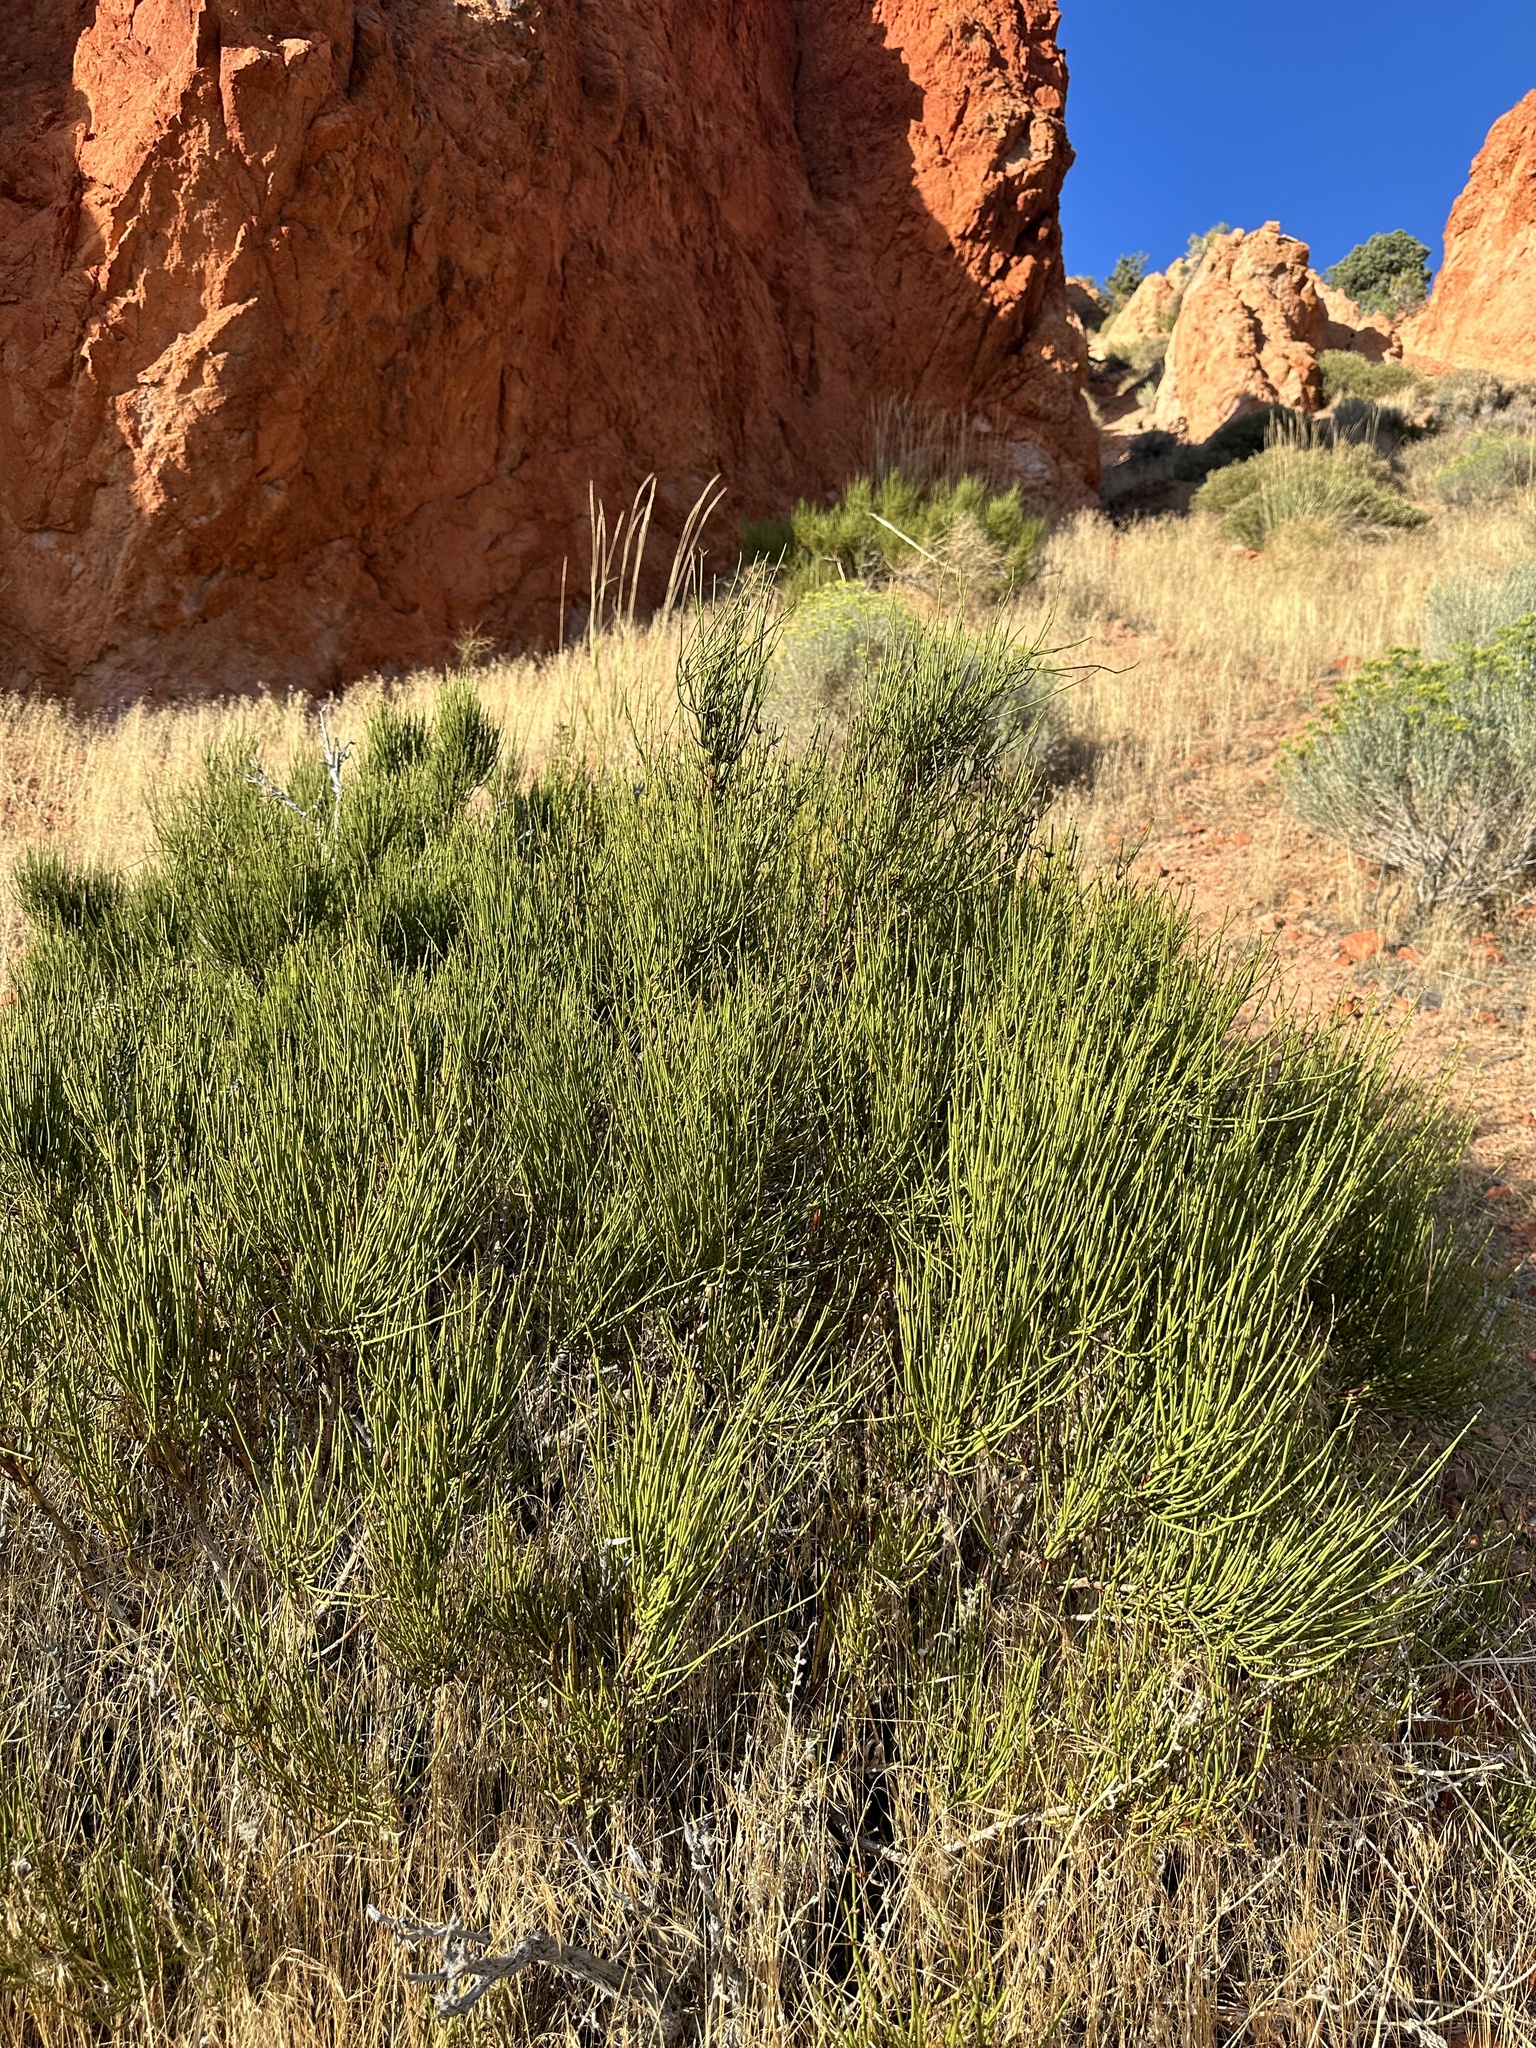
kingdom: Plantae
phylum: Tracheophyta
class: Gnetopsida
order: Ephedrales
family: Ephedraceae
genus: Ephedra
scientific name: Ephedra viridis
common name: Green ephedra
